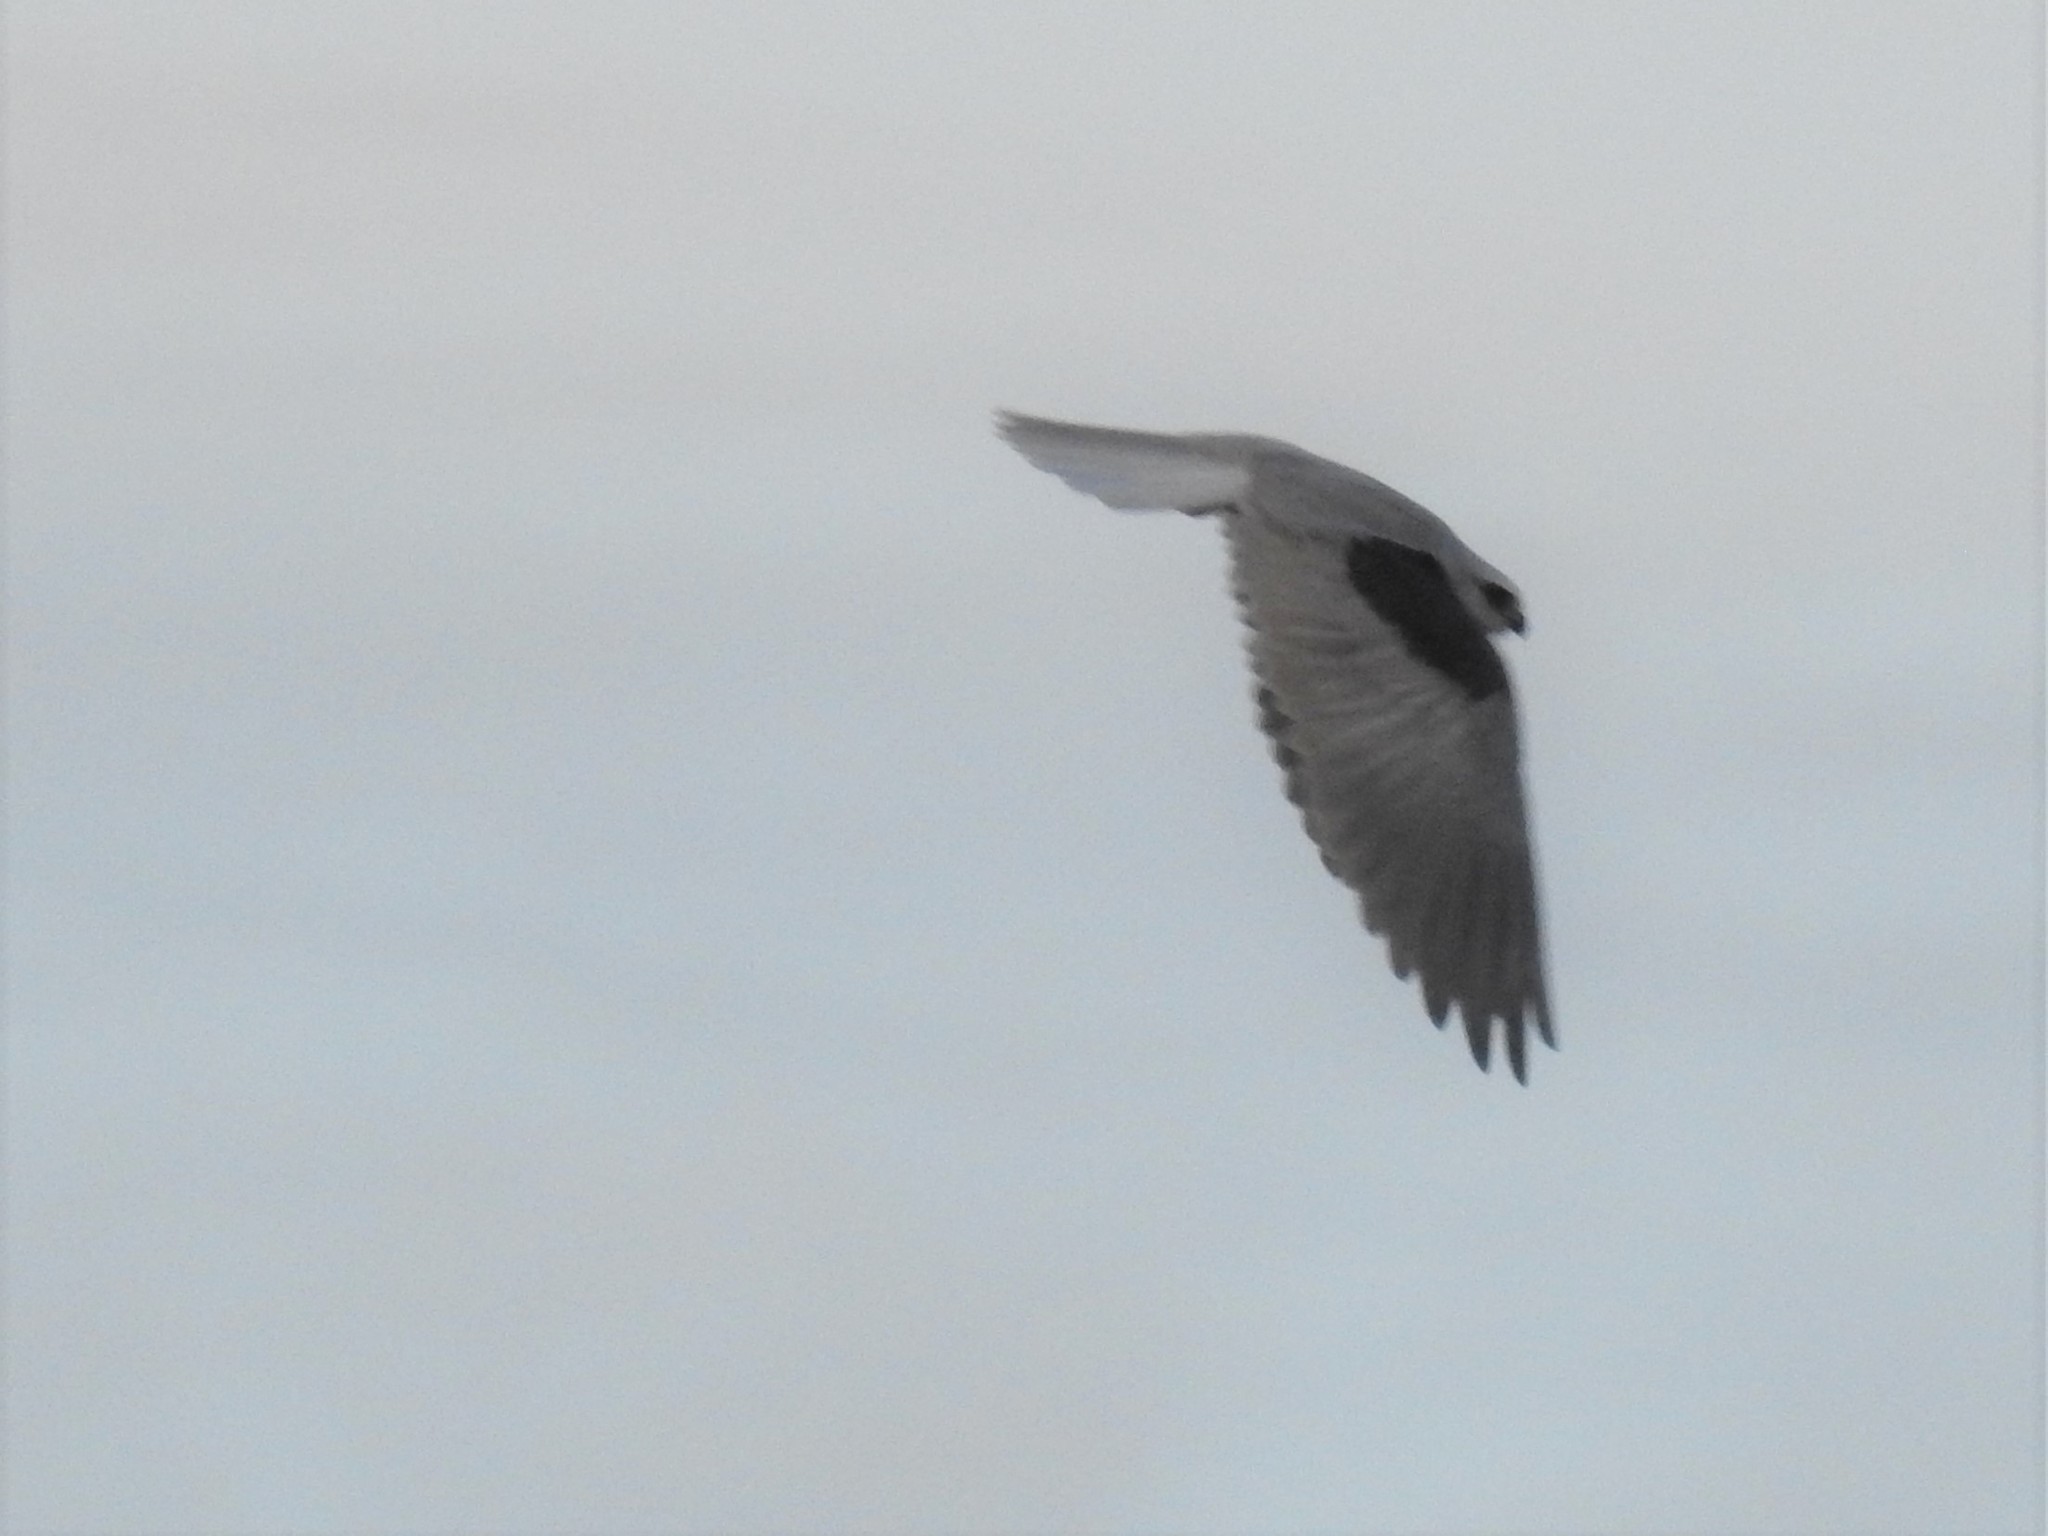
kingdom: Animalia
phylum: Chordata
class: Aves
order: Accipitriformes
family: Accipitridae
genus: Elanus
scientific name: Elanus leucurus
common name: White-tailed kite
